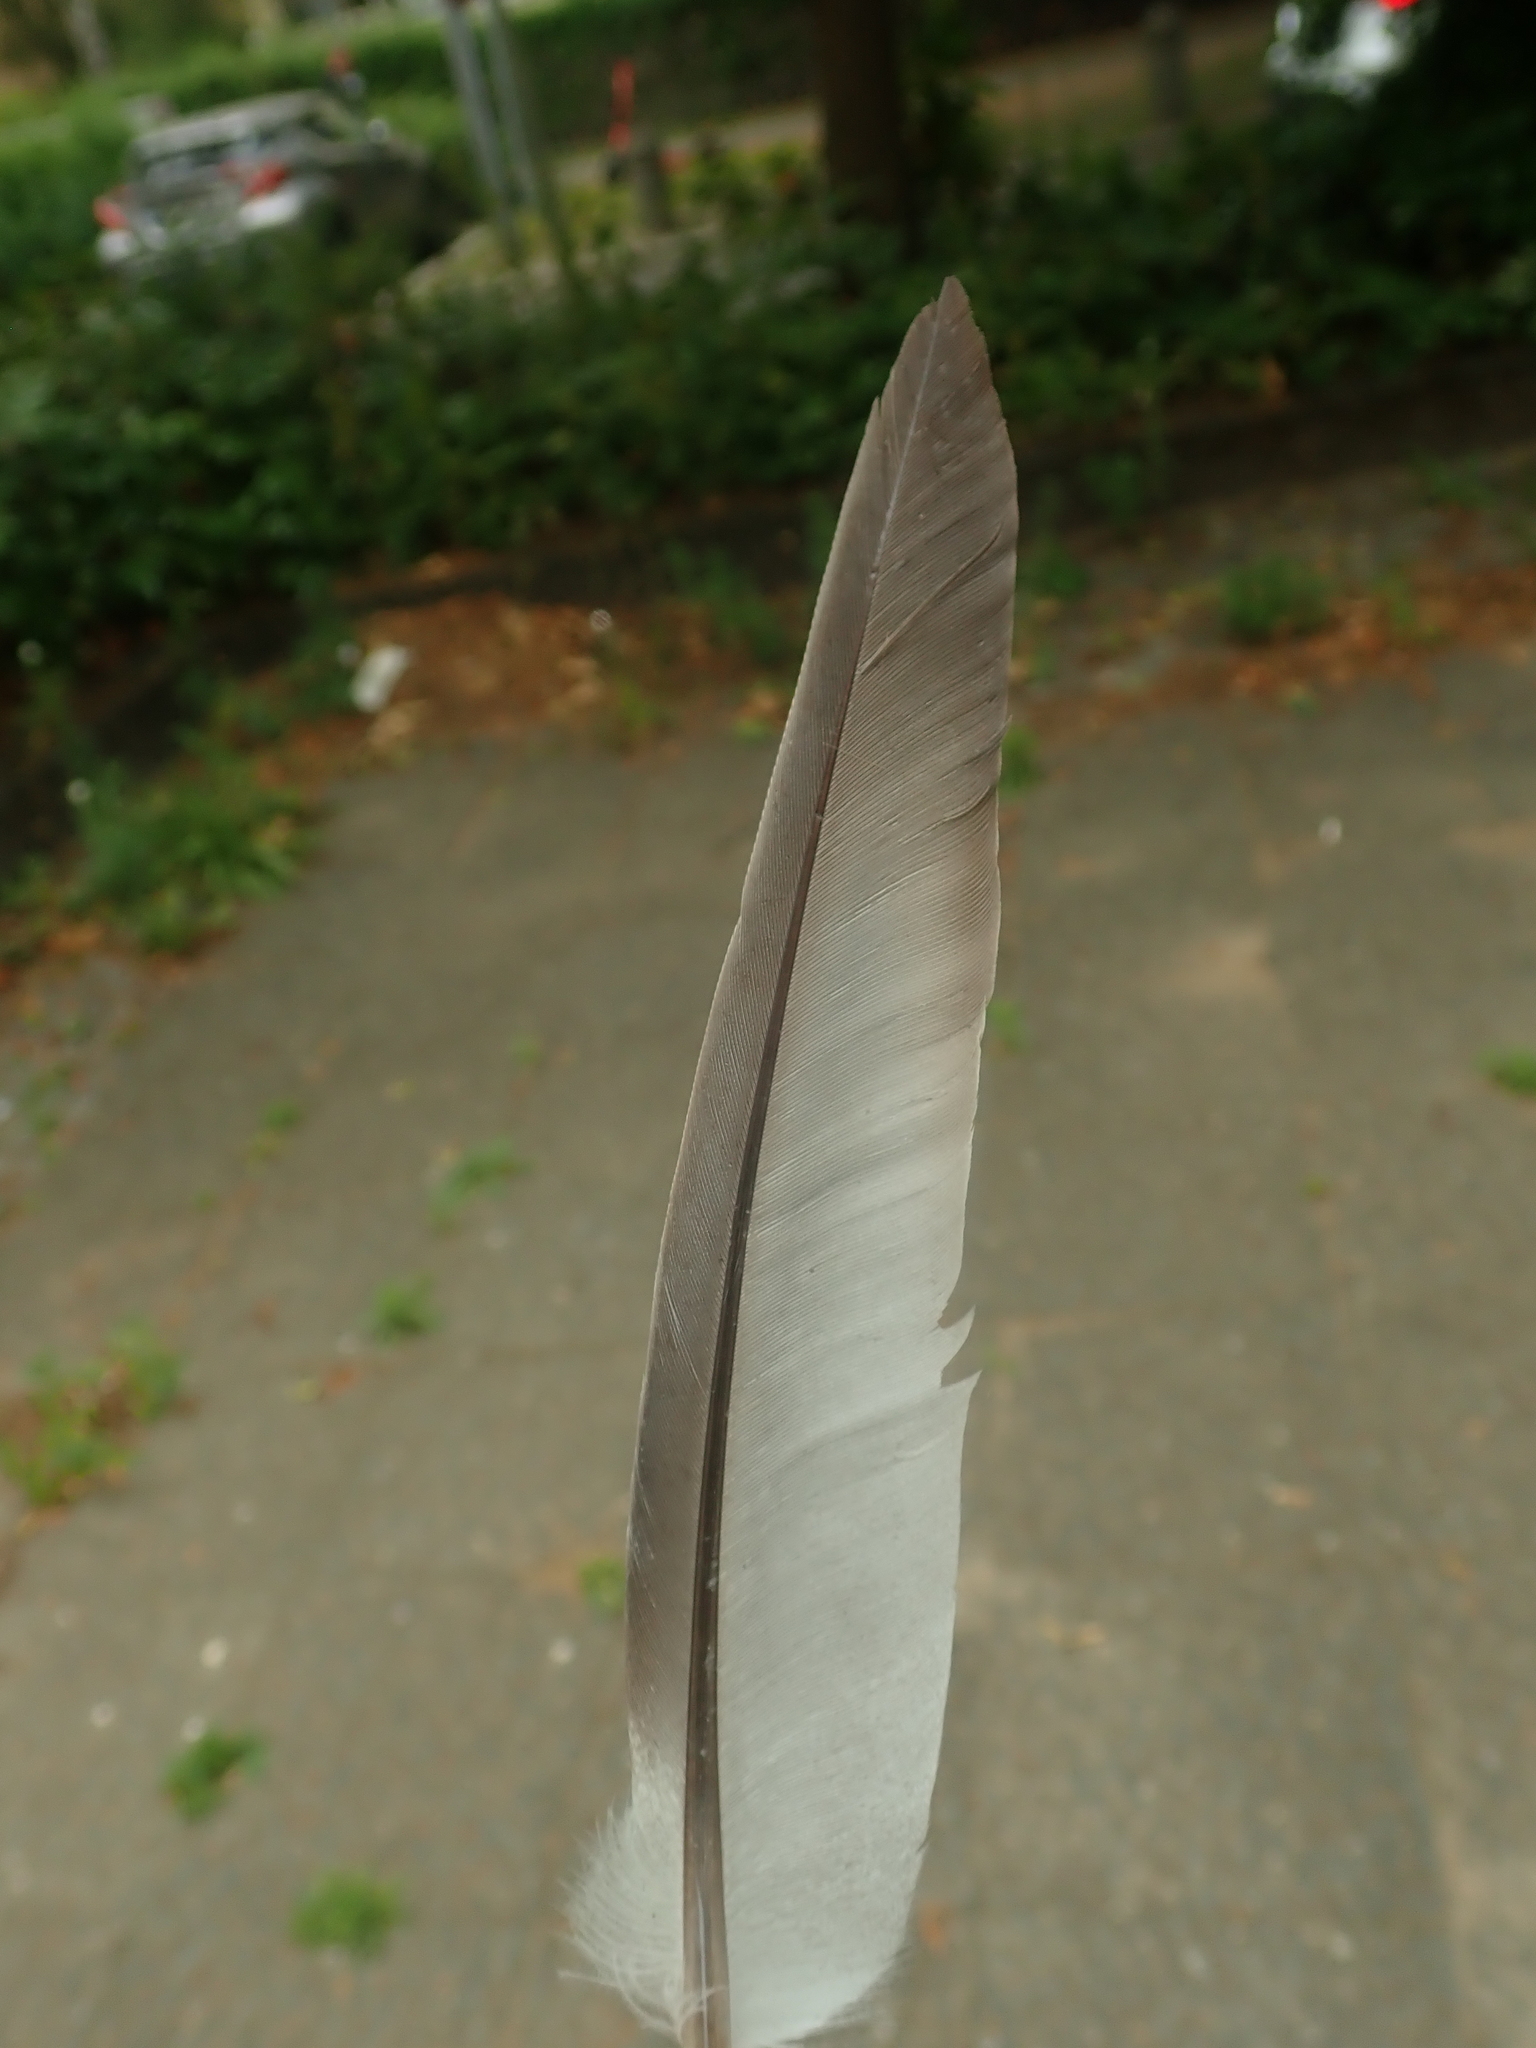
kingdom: Animalia
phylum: Chordata
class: Aves
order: Columbiformes
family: Columbidae
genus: Columba
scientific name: Columba palumbus
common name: Common wood pigeon
